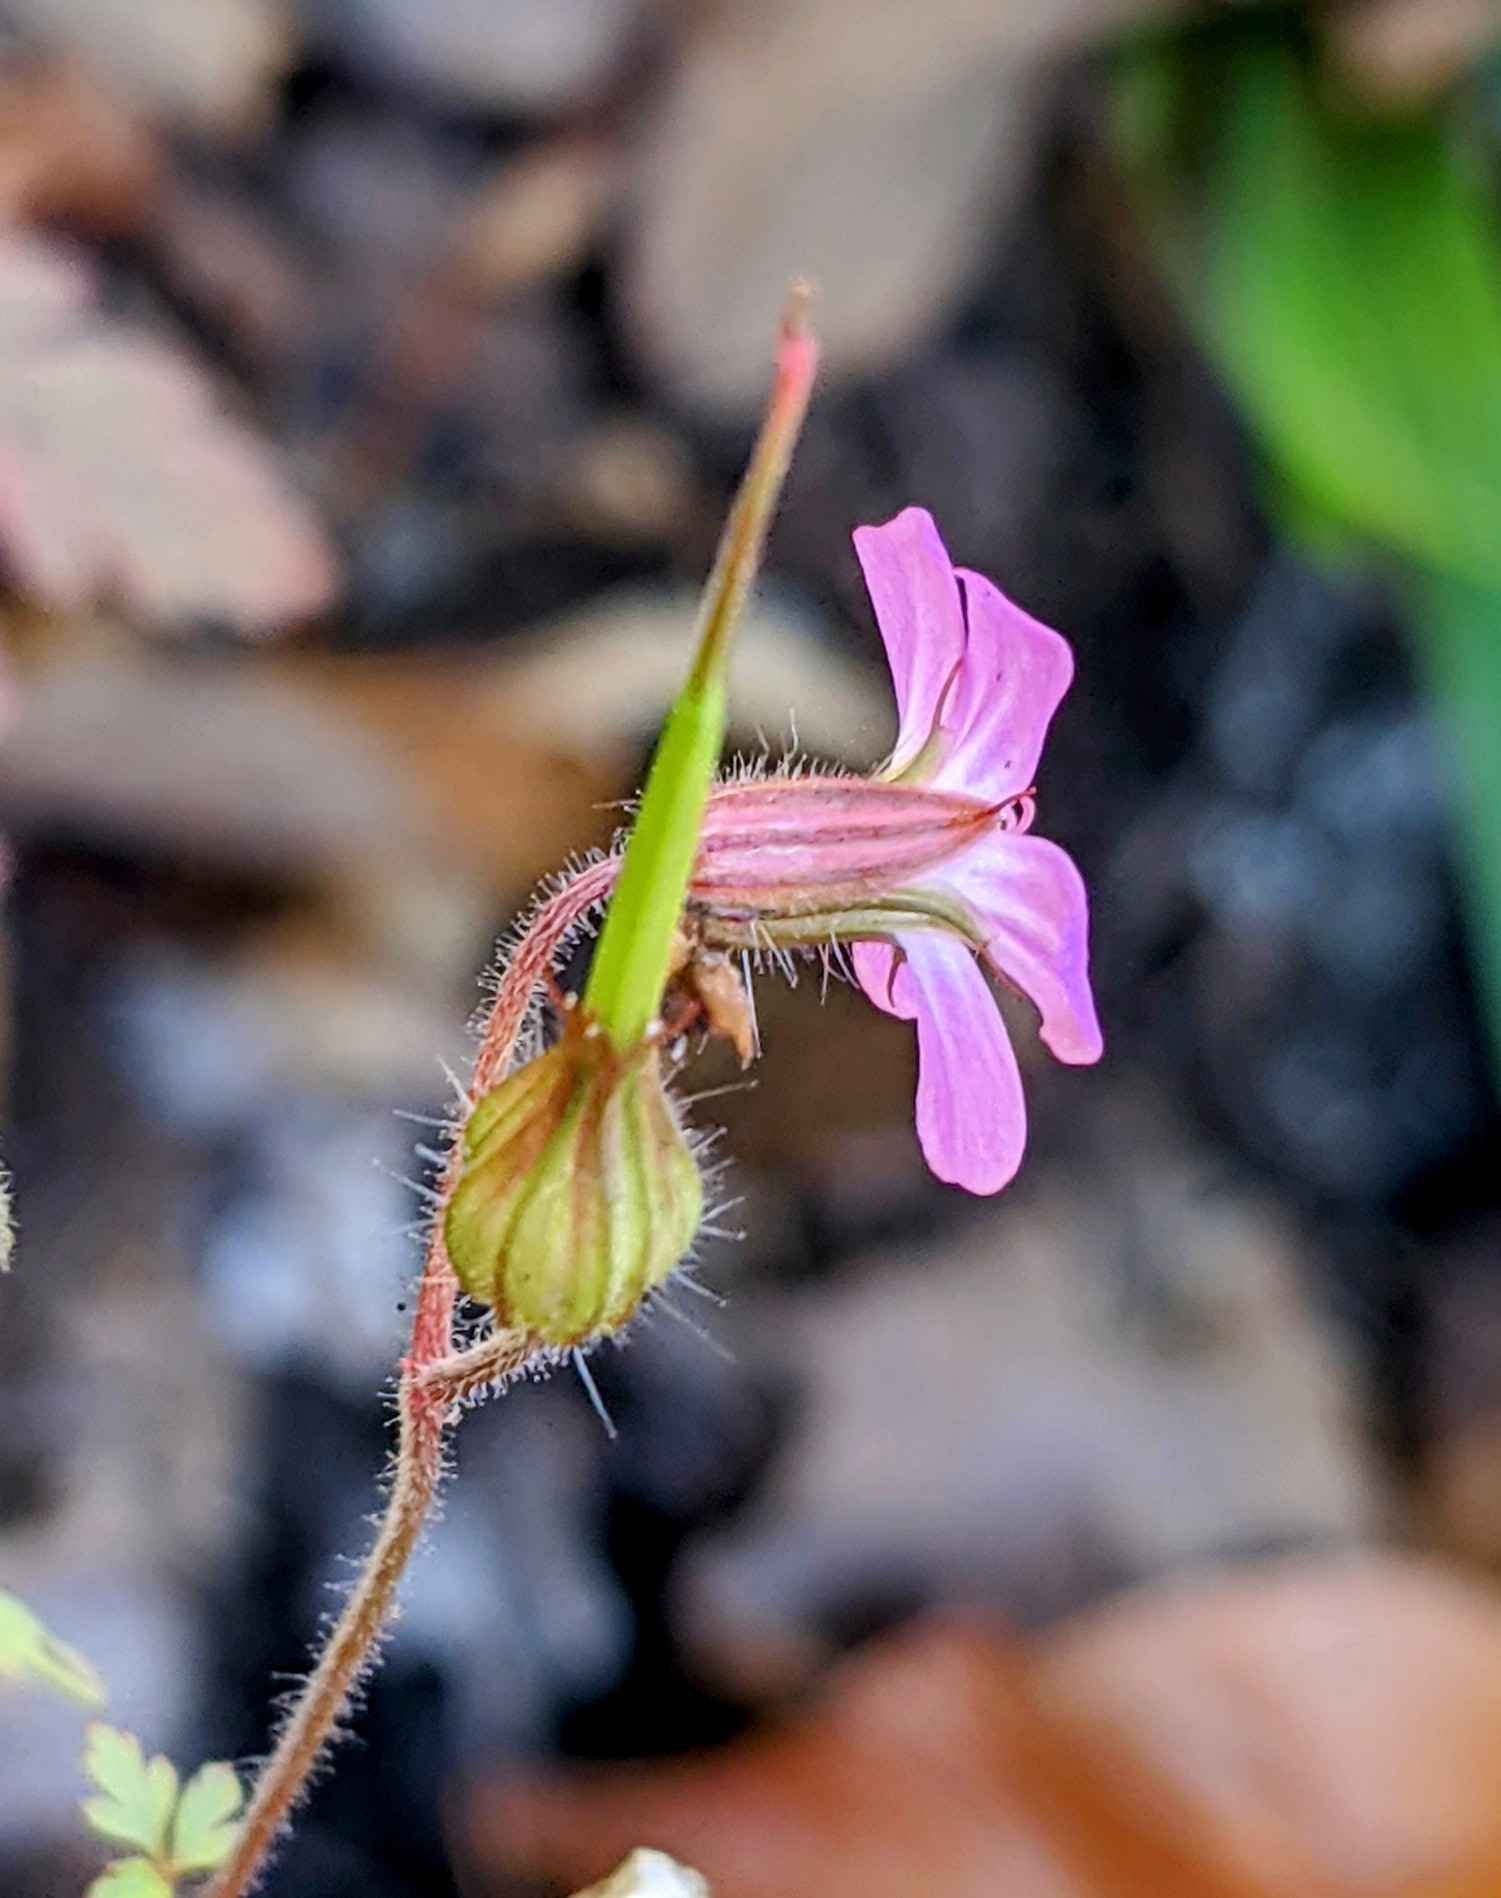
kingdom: Plantae
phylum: Tracheophyta
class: Magnoliopsida
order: Geraniales
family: Geraniaceae
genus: Geranium
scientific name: Geranium robertianum
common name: Herb-robert
